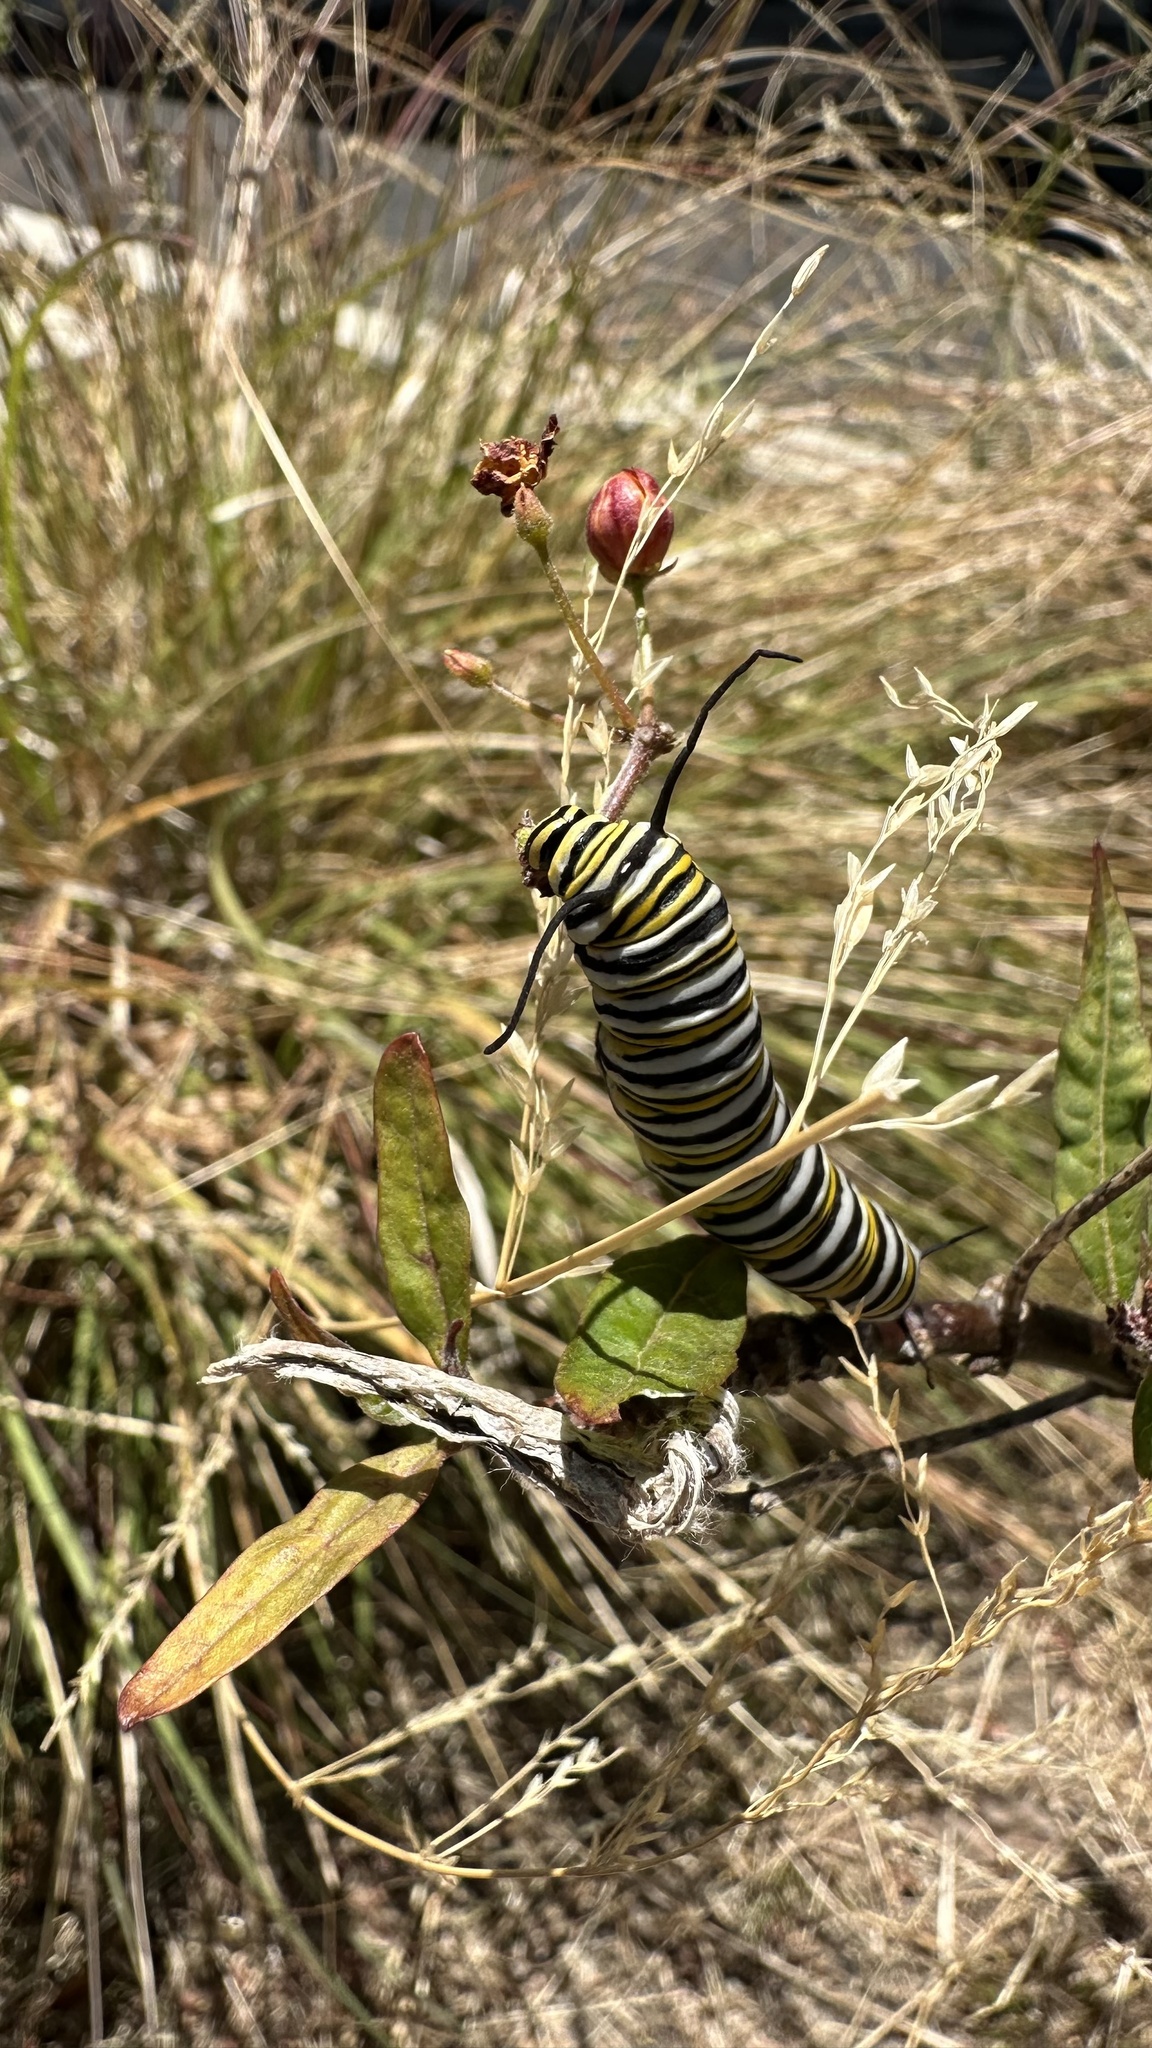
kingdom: Animalia
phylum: Arthropoda
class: Insecta
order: Lepidoptera
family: Nymphalidae
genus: Danaus
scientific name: Danaus plexippus
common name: Monarch
